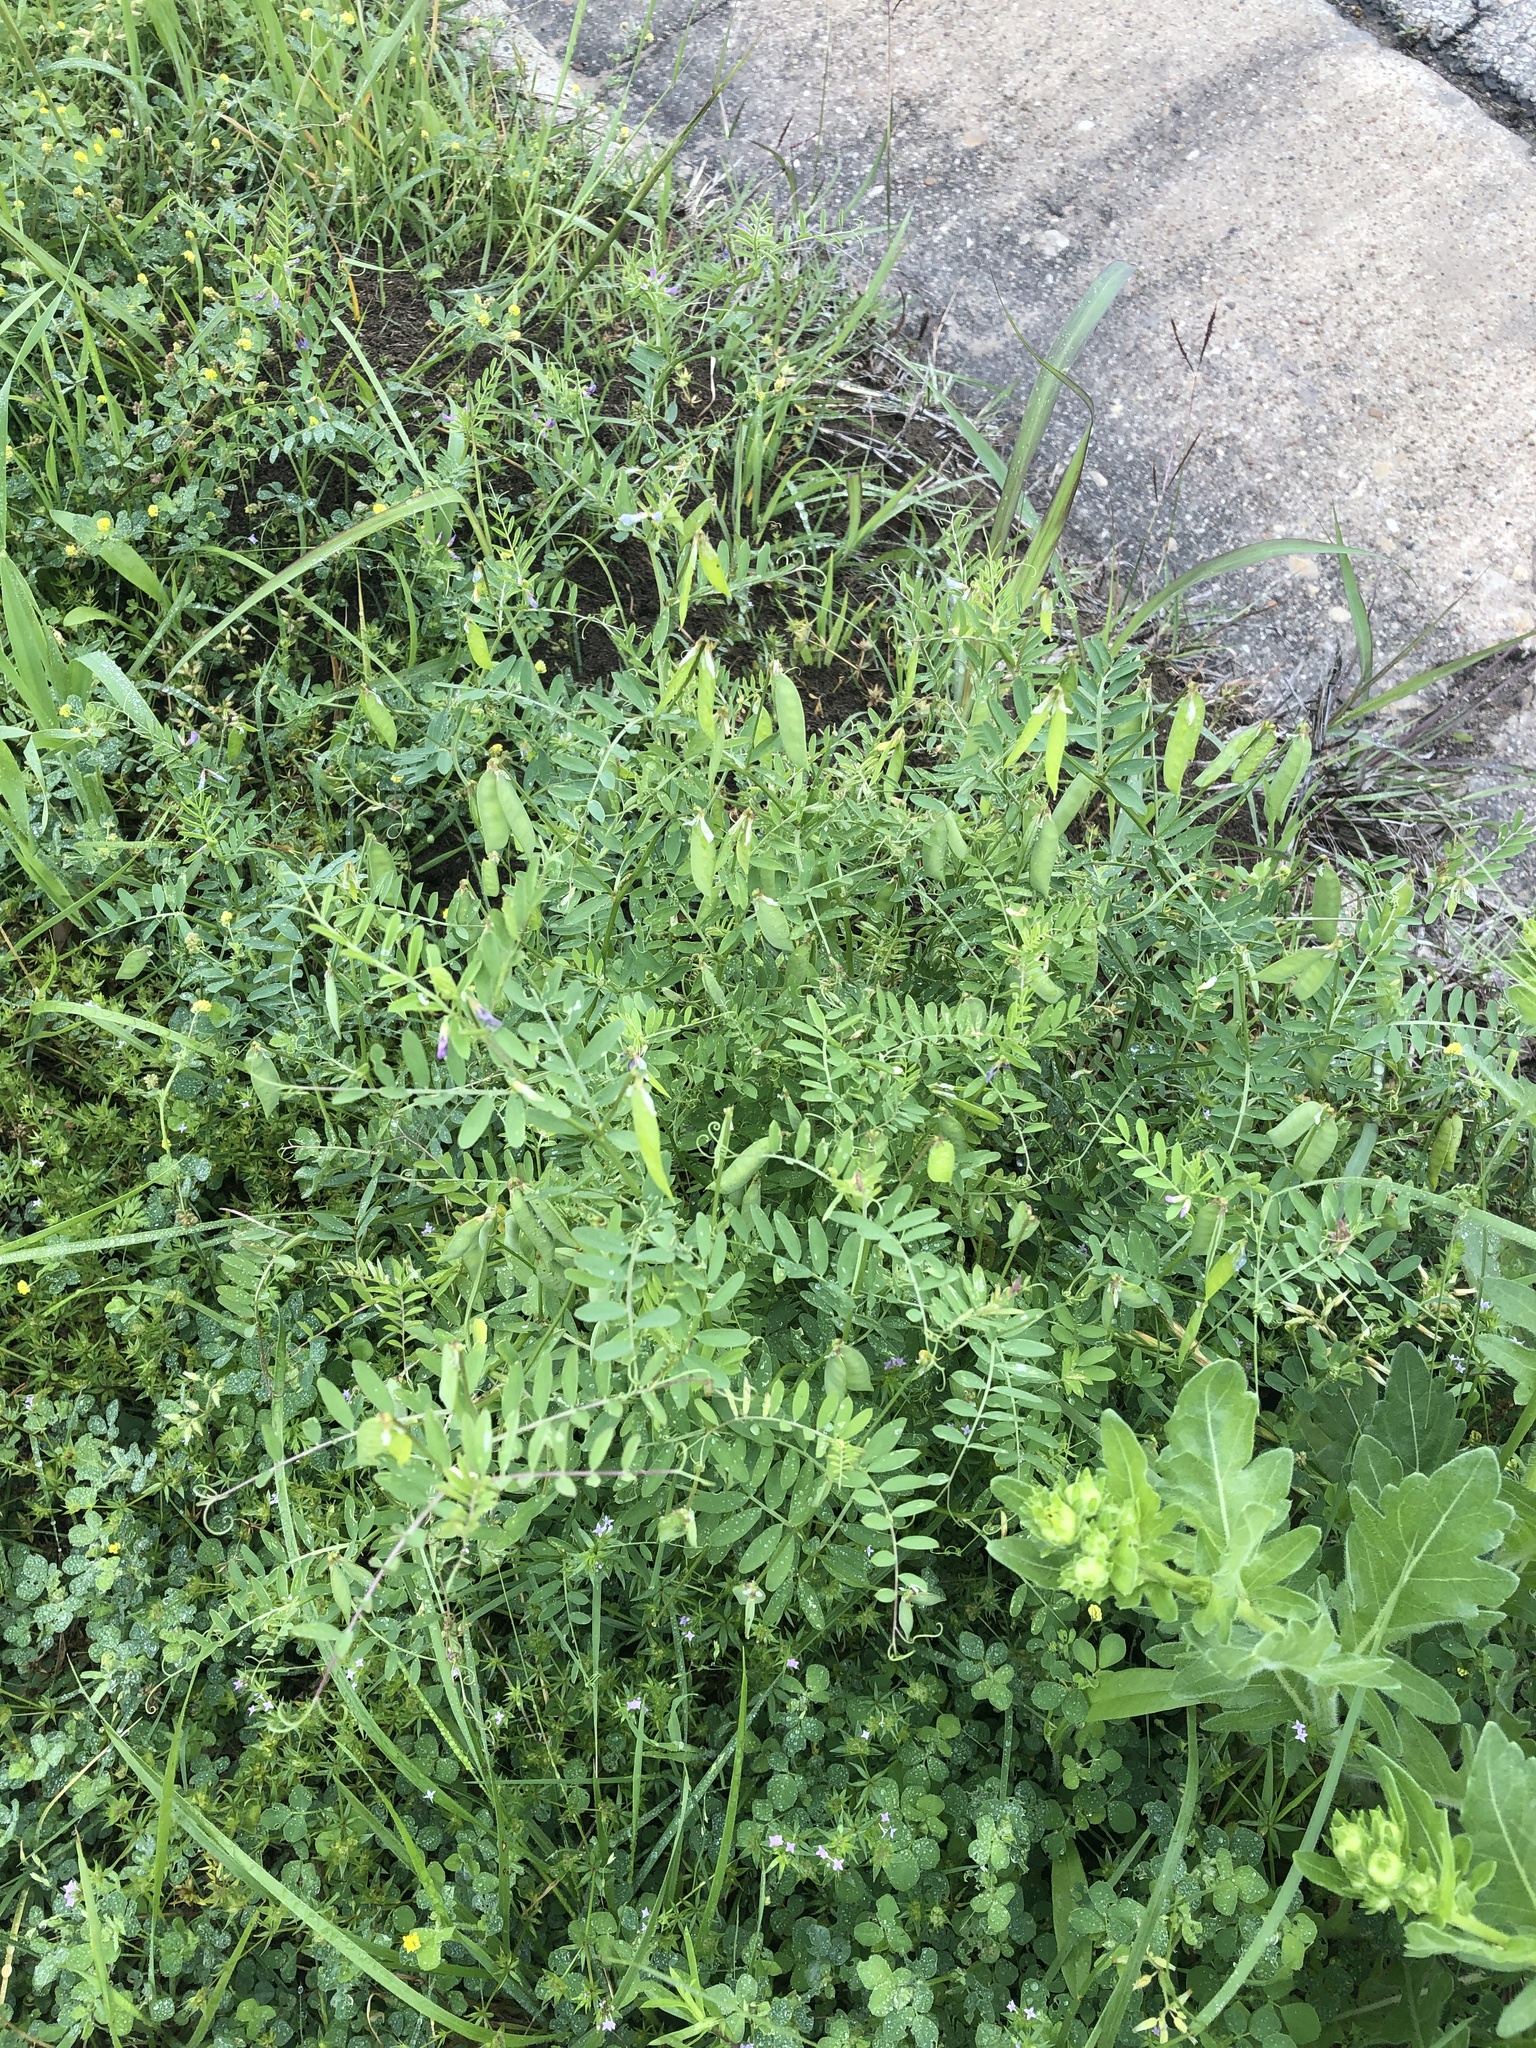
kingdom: Plantae
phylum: Tracheophyta
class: Magnoliopsida
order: Fabales
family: Fabaceae
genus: Vicia
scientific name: Vicia ludoviciana
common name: Louisiana vetch
